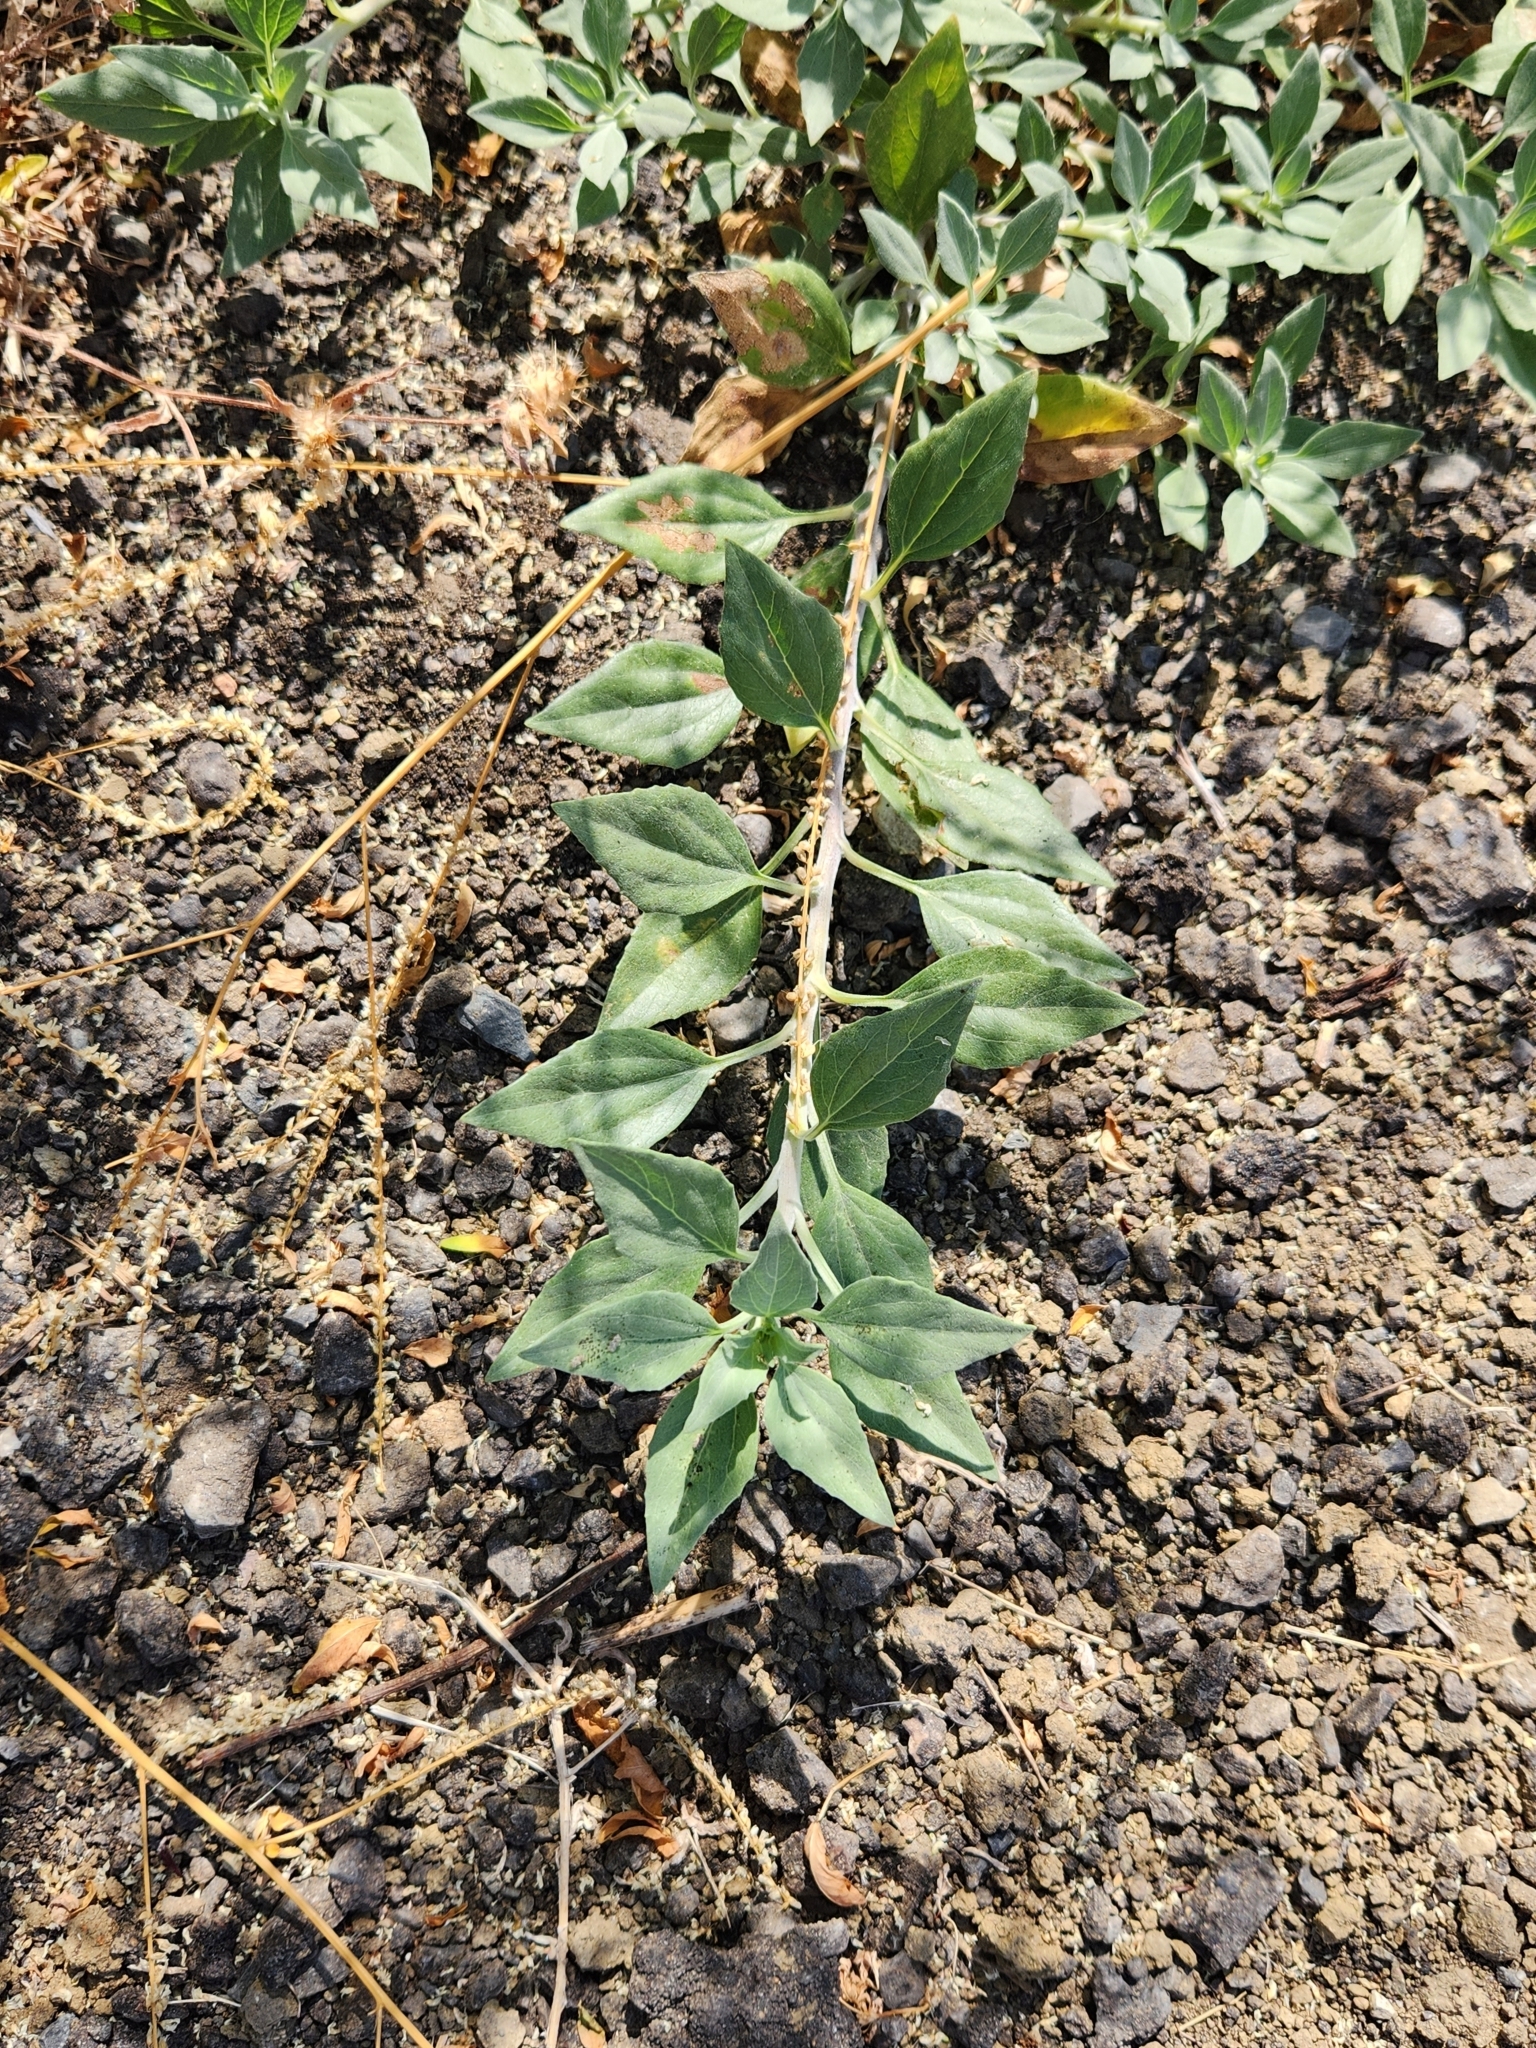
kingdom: Plantae
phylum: Tracheophyta
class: Magnoliopsida
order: Asterales
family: Asteraceae
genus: Encelia
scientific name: Encelia californica
